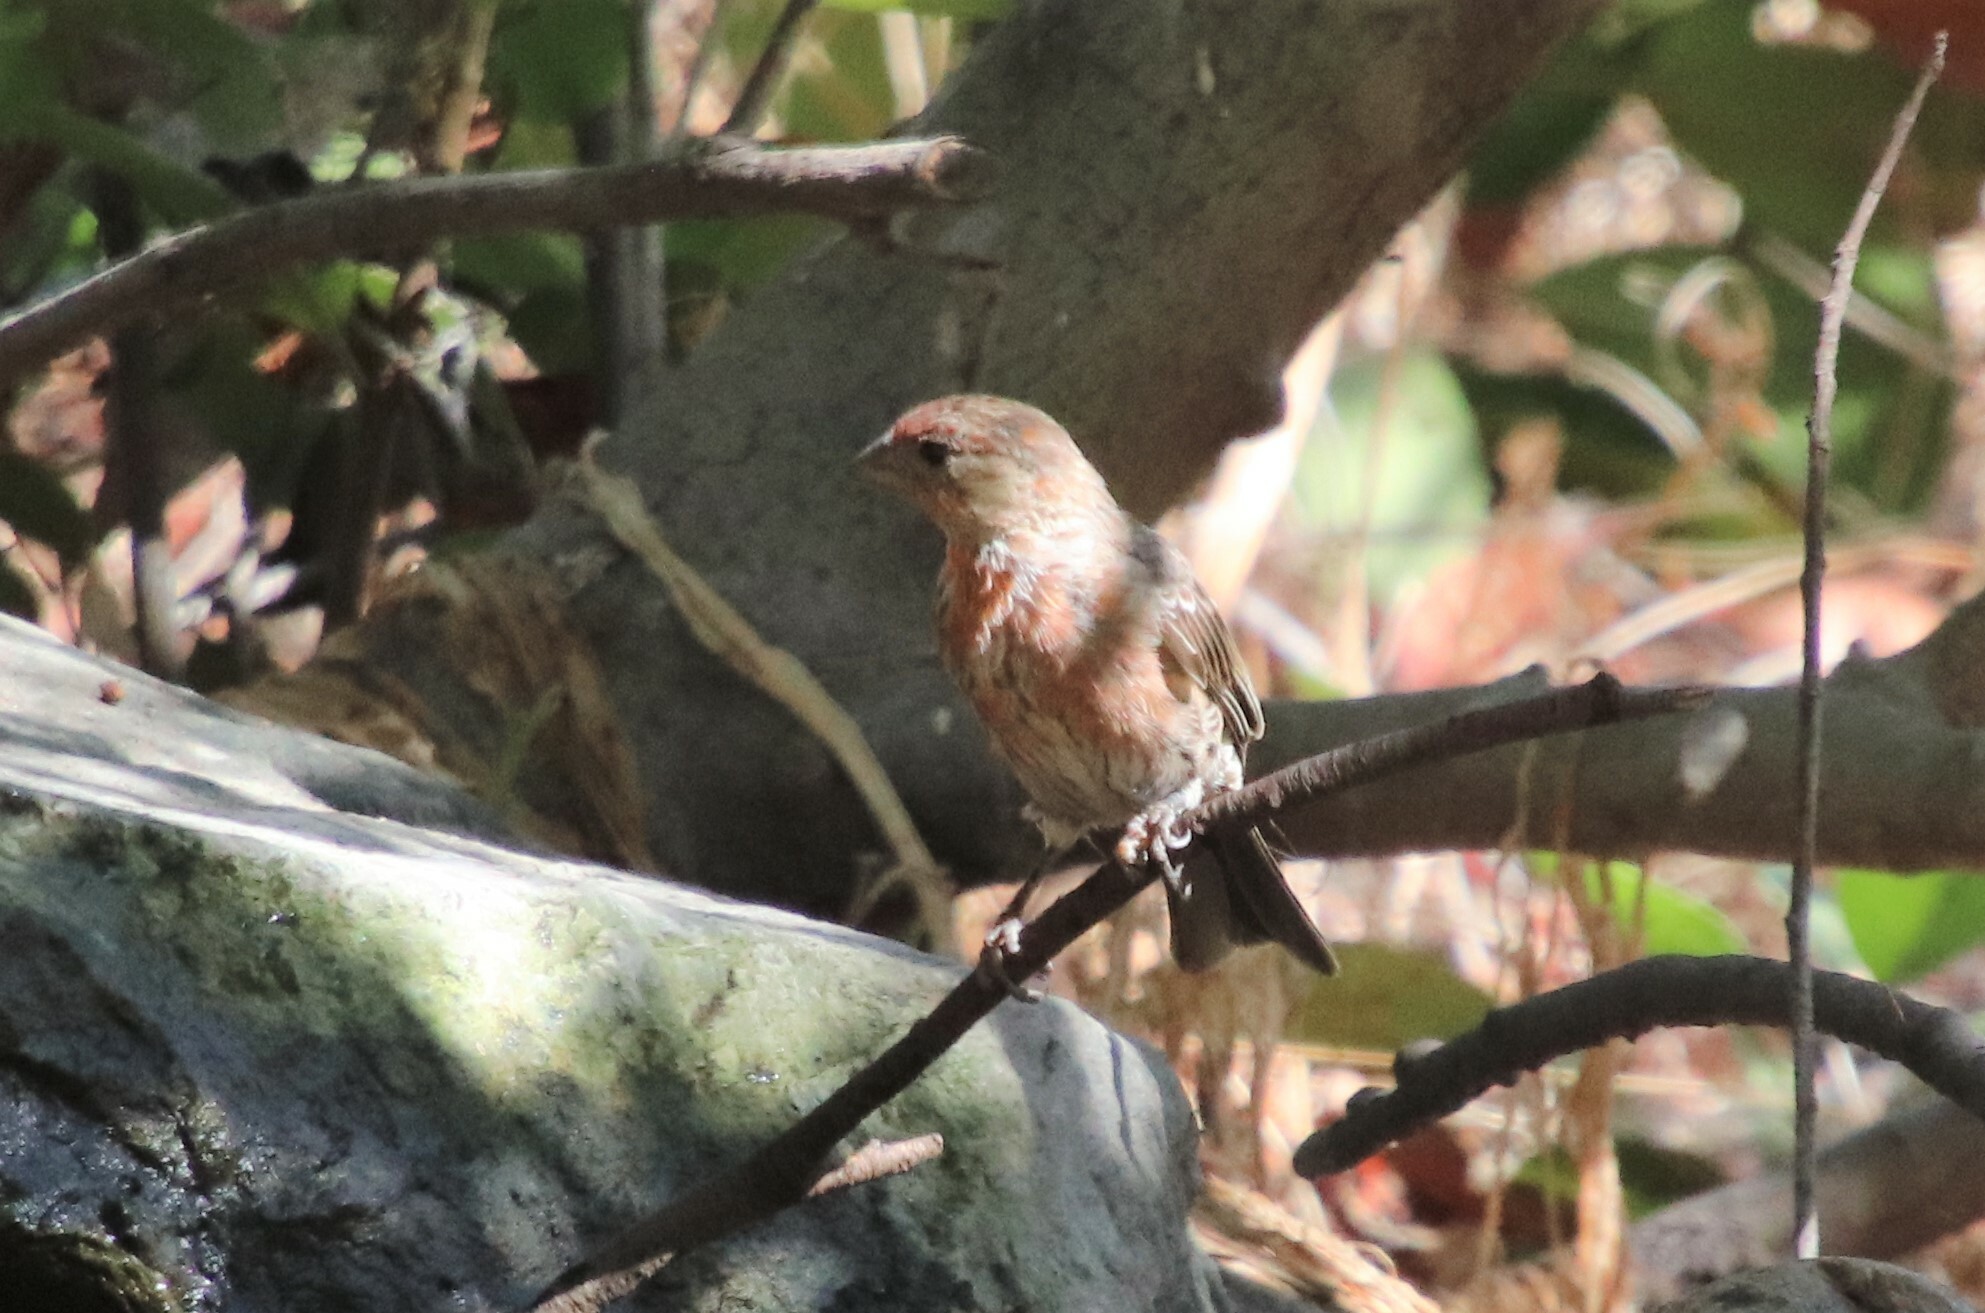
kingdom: Animalia
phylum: Chordata
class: Aves
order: Passeriformes
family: Fringillidae
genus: Haemorhous
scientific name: Haemorhous mexicanus
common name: House finch
